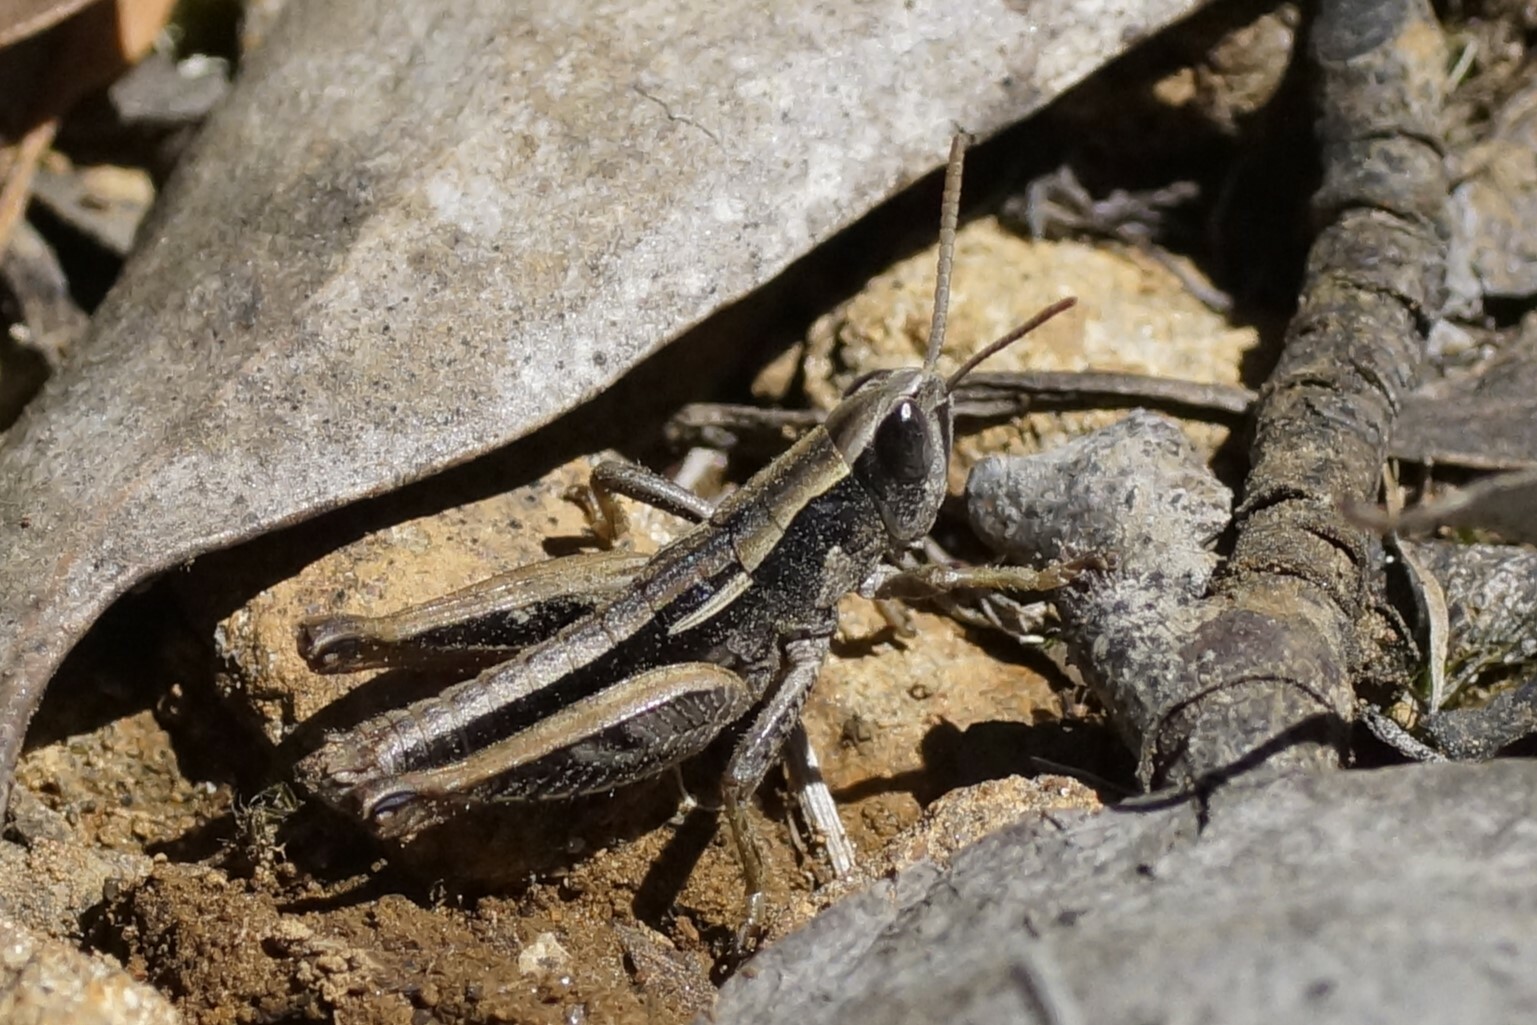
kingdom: Animalia
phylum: Arthropoda
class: Insecta
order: Orthoptera
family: Acrididae
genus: Russalpia
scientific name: Russalpia albertisi
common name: Tassie hopper
